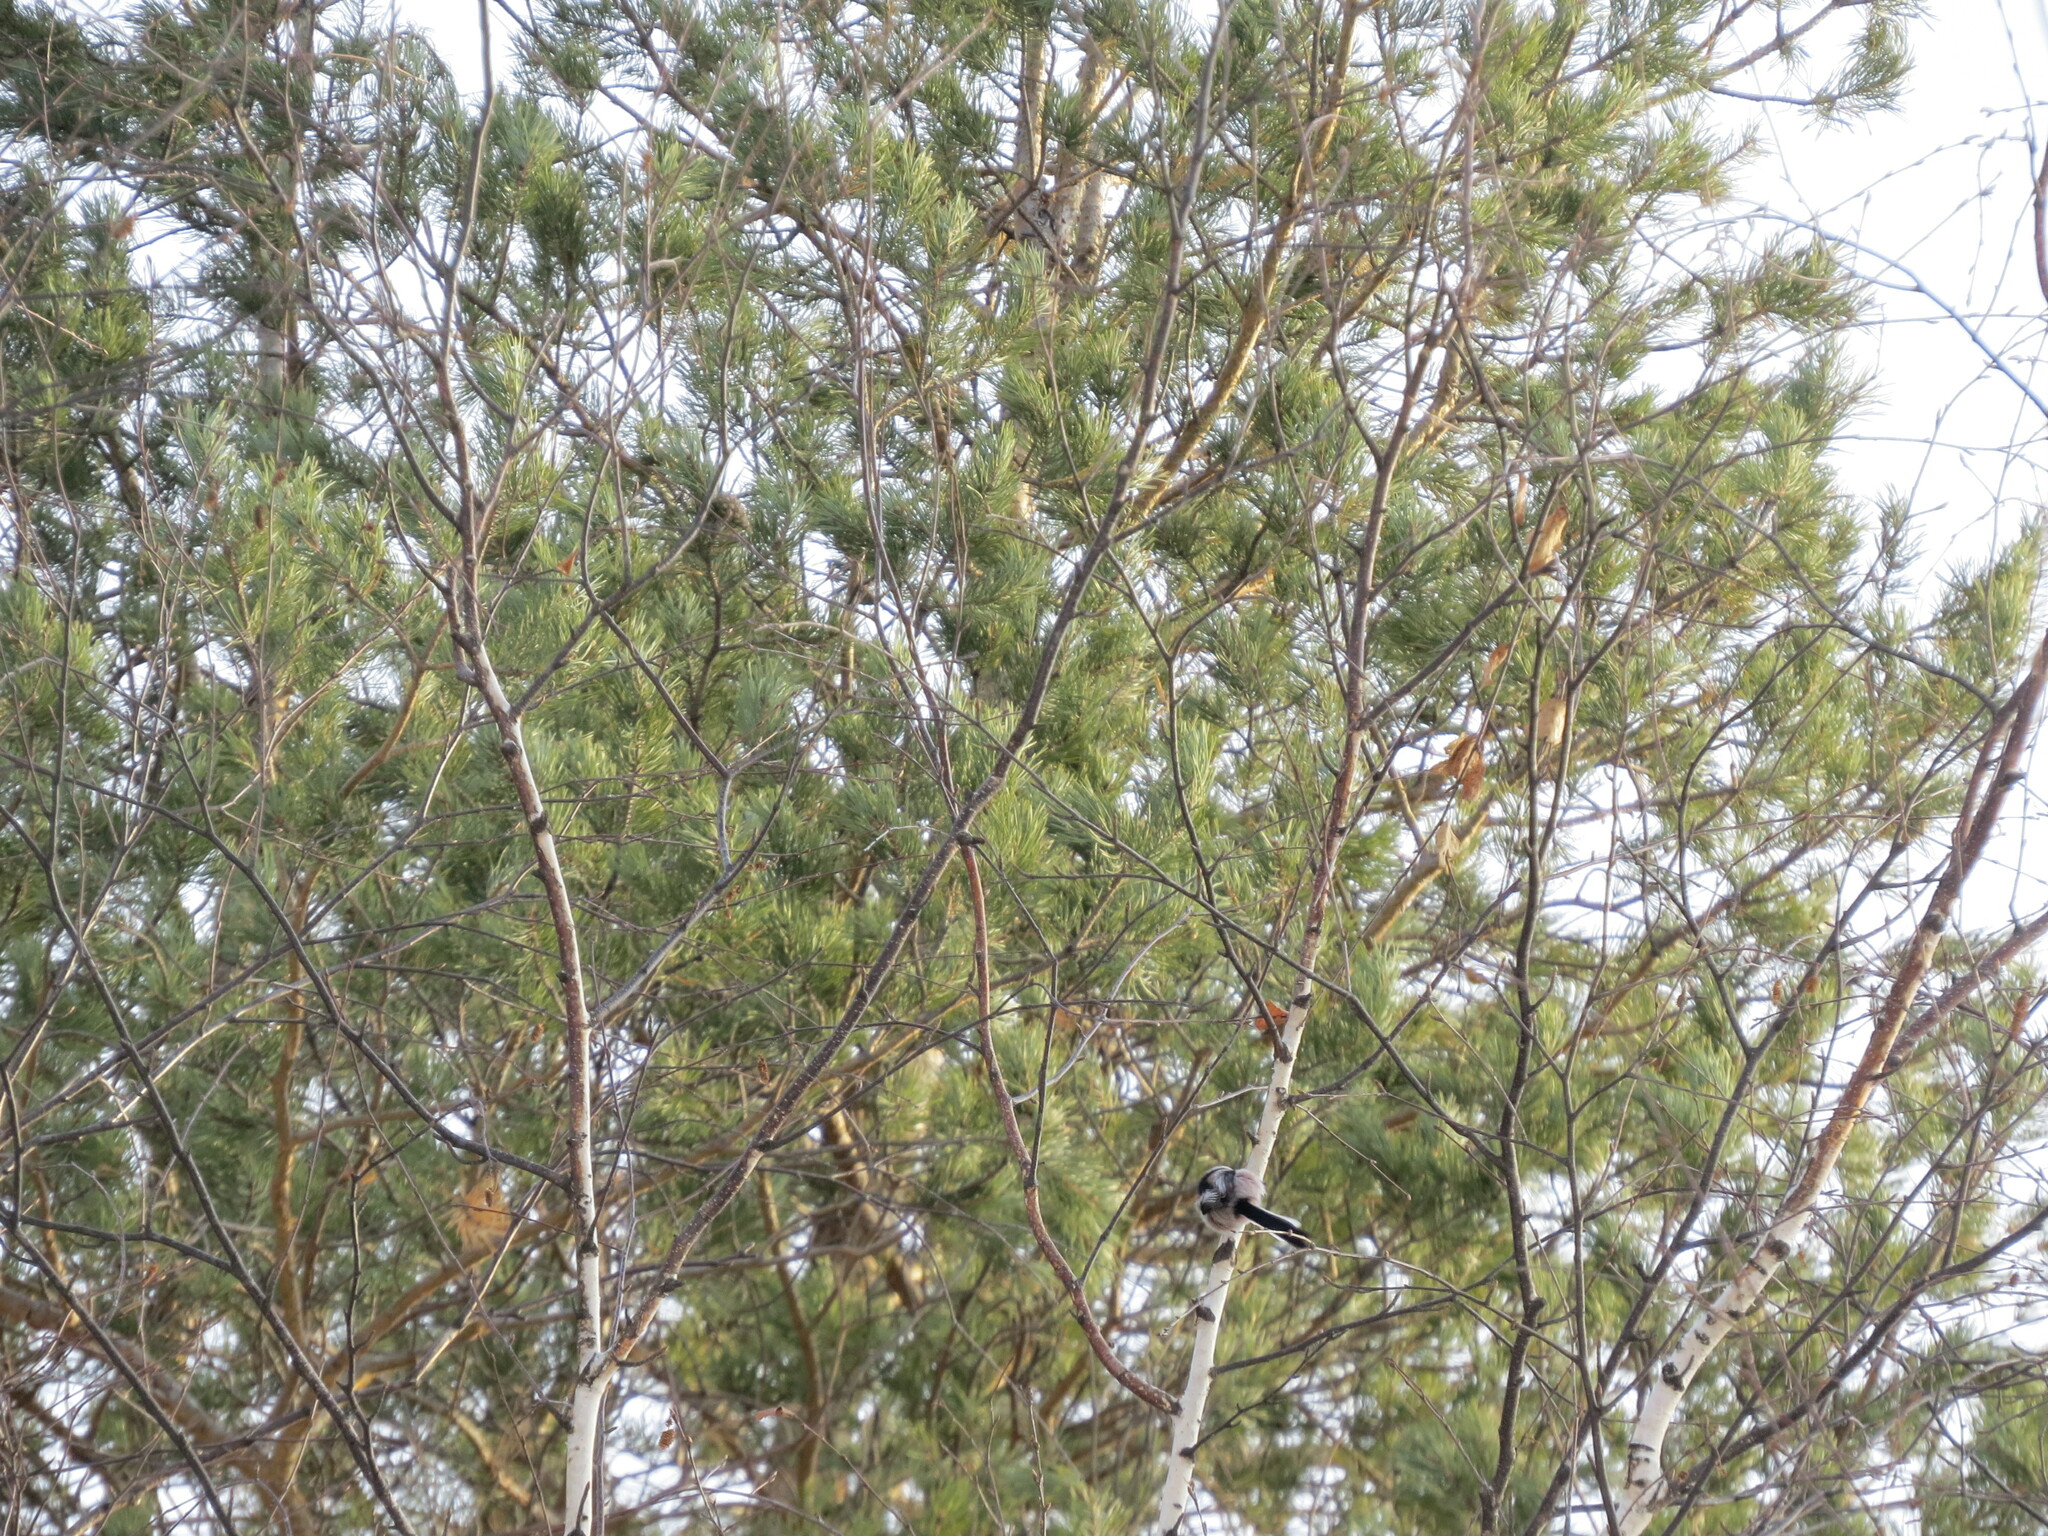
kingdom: Animalia
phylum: Chordata
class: Aves
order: Passeriformes
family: Aegithalidae
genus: Aegithalos
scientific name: Aegithalos caudatus
